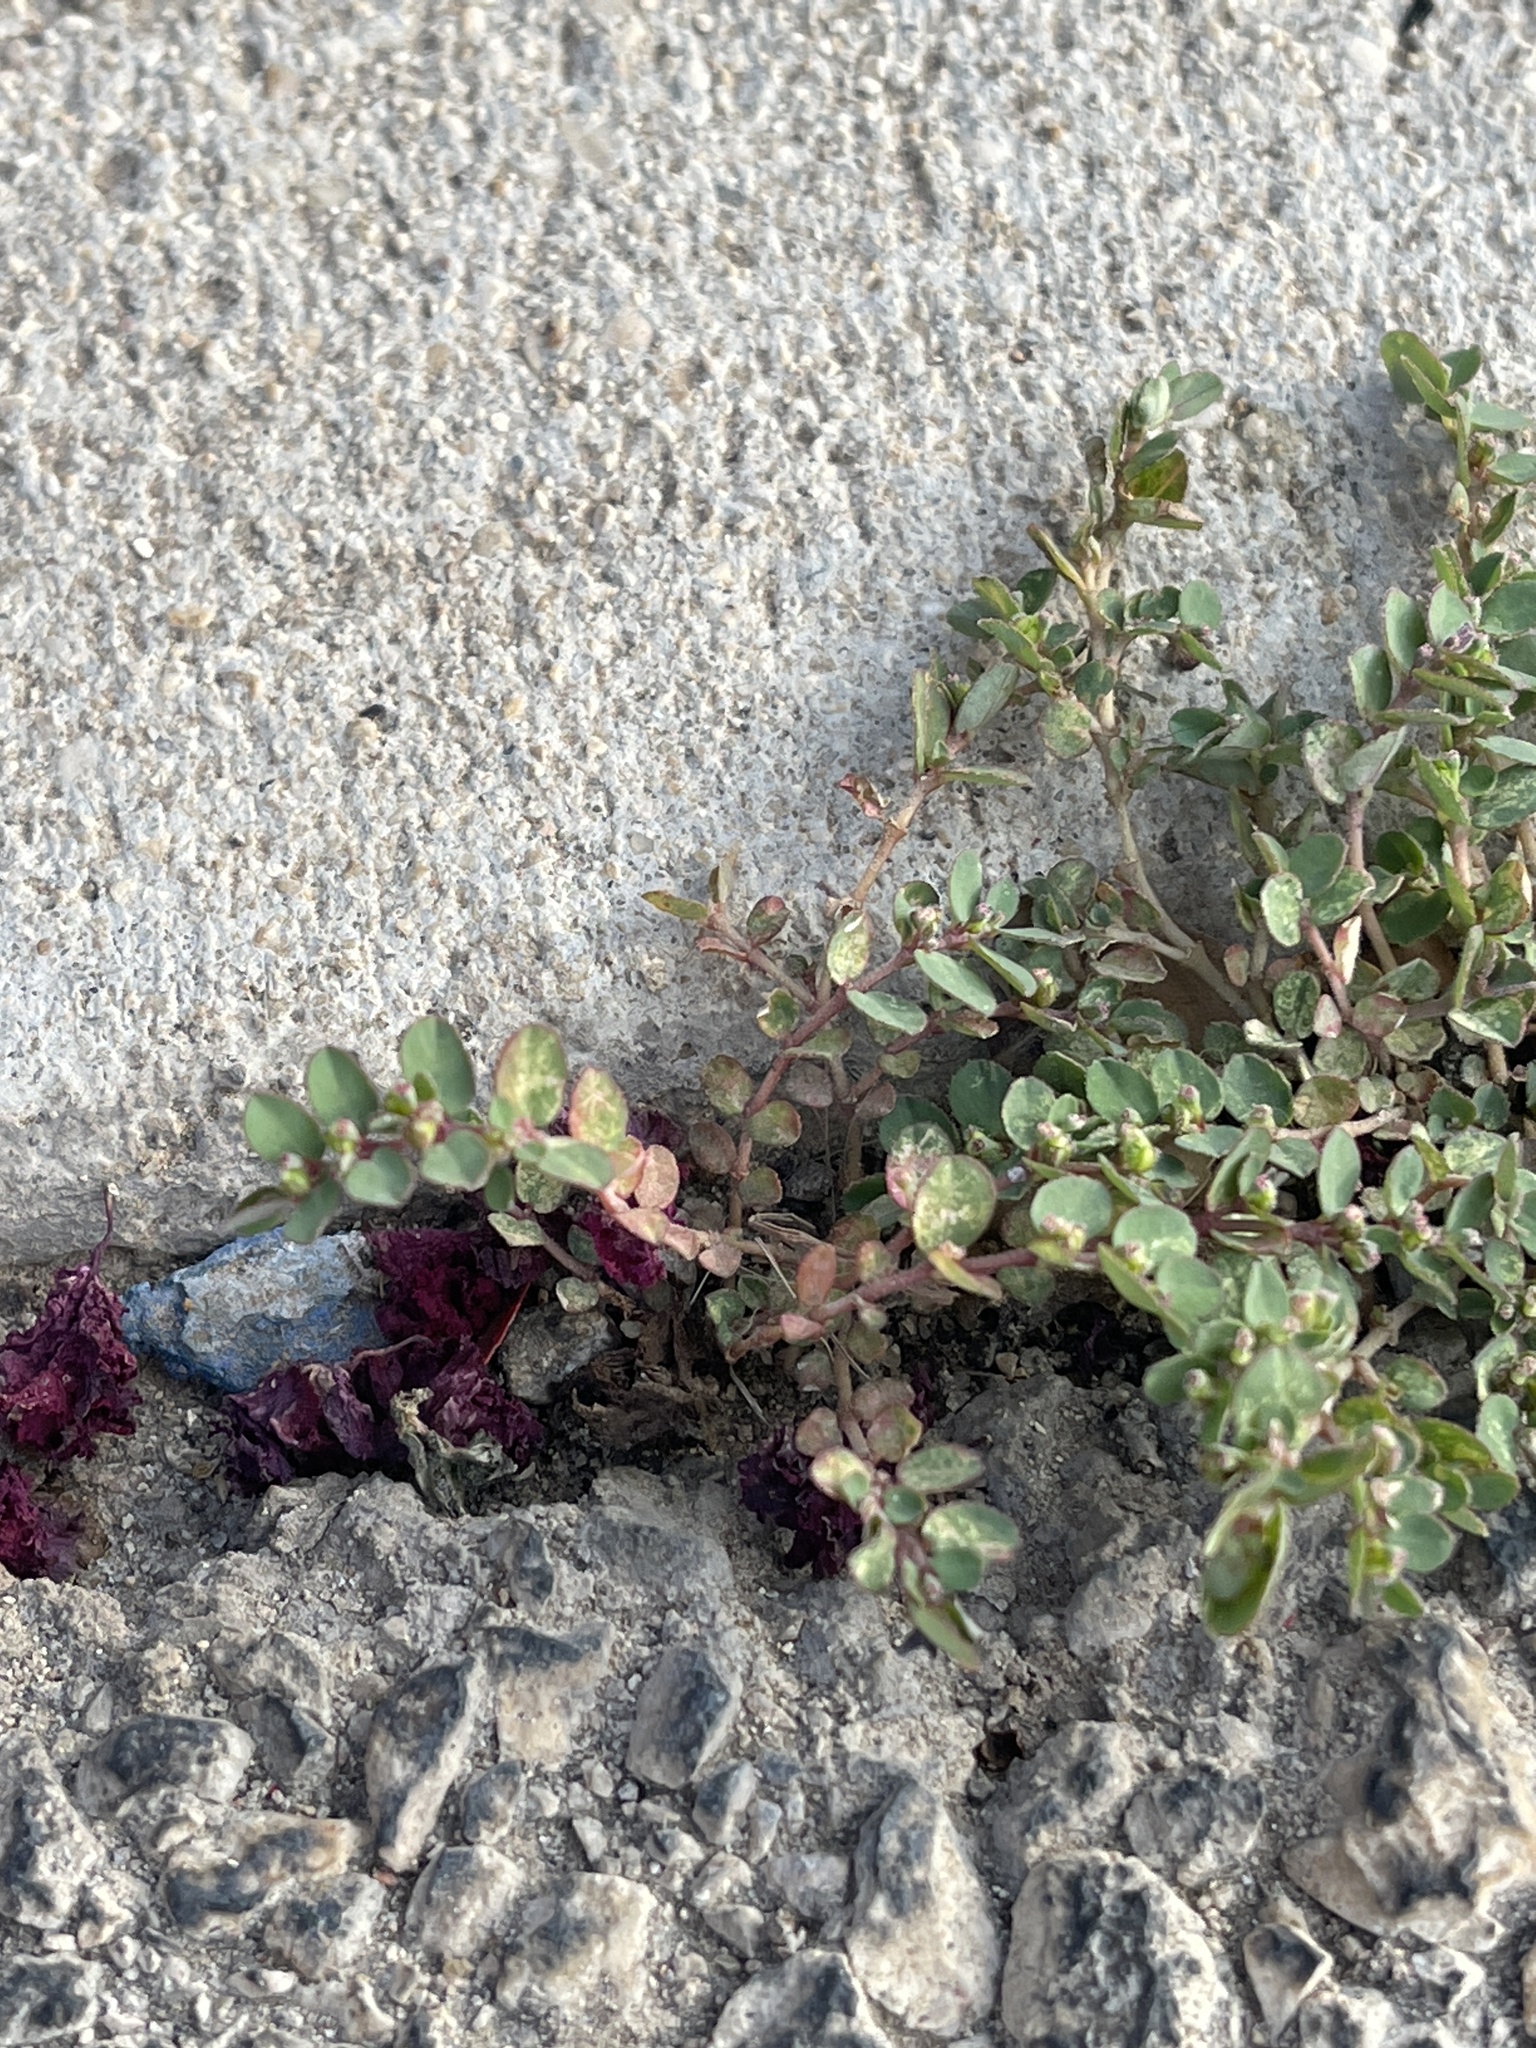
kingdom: Plantae
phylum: Tracheophyta
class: Magnoliopsida
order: Malpighiales
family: Euphorbiaceae
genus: Euphorbia
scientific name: Euphorbia prostrata
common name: Prostrate sandmat
